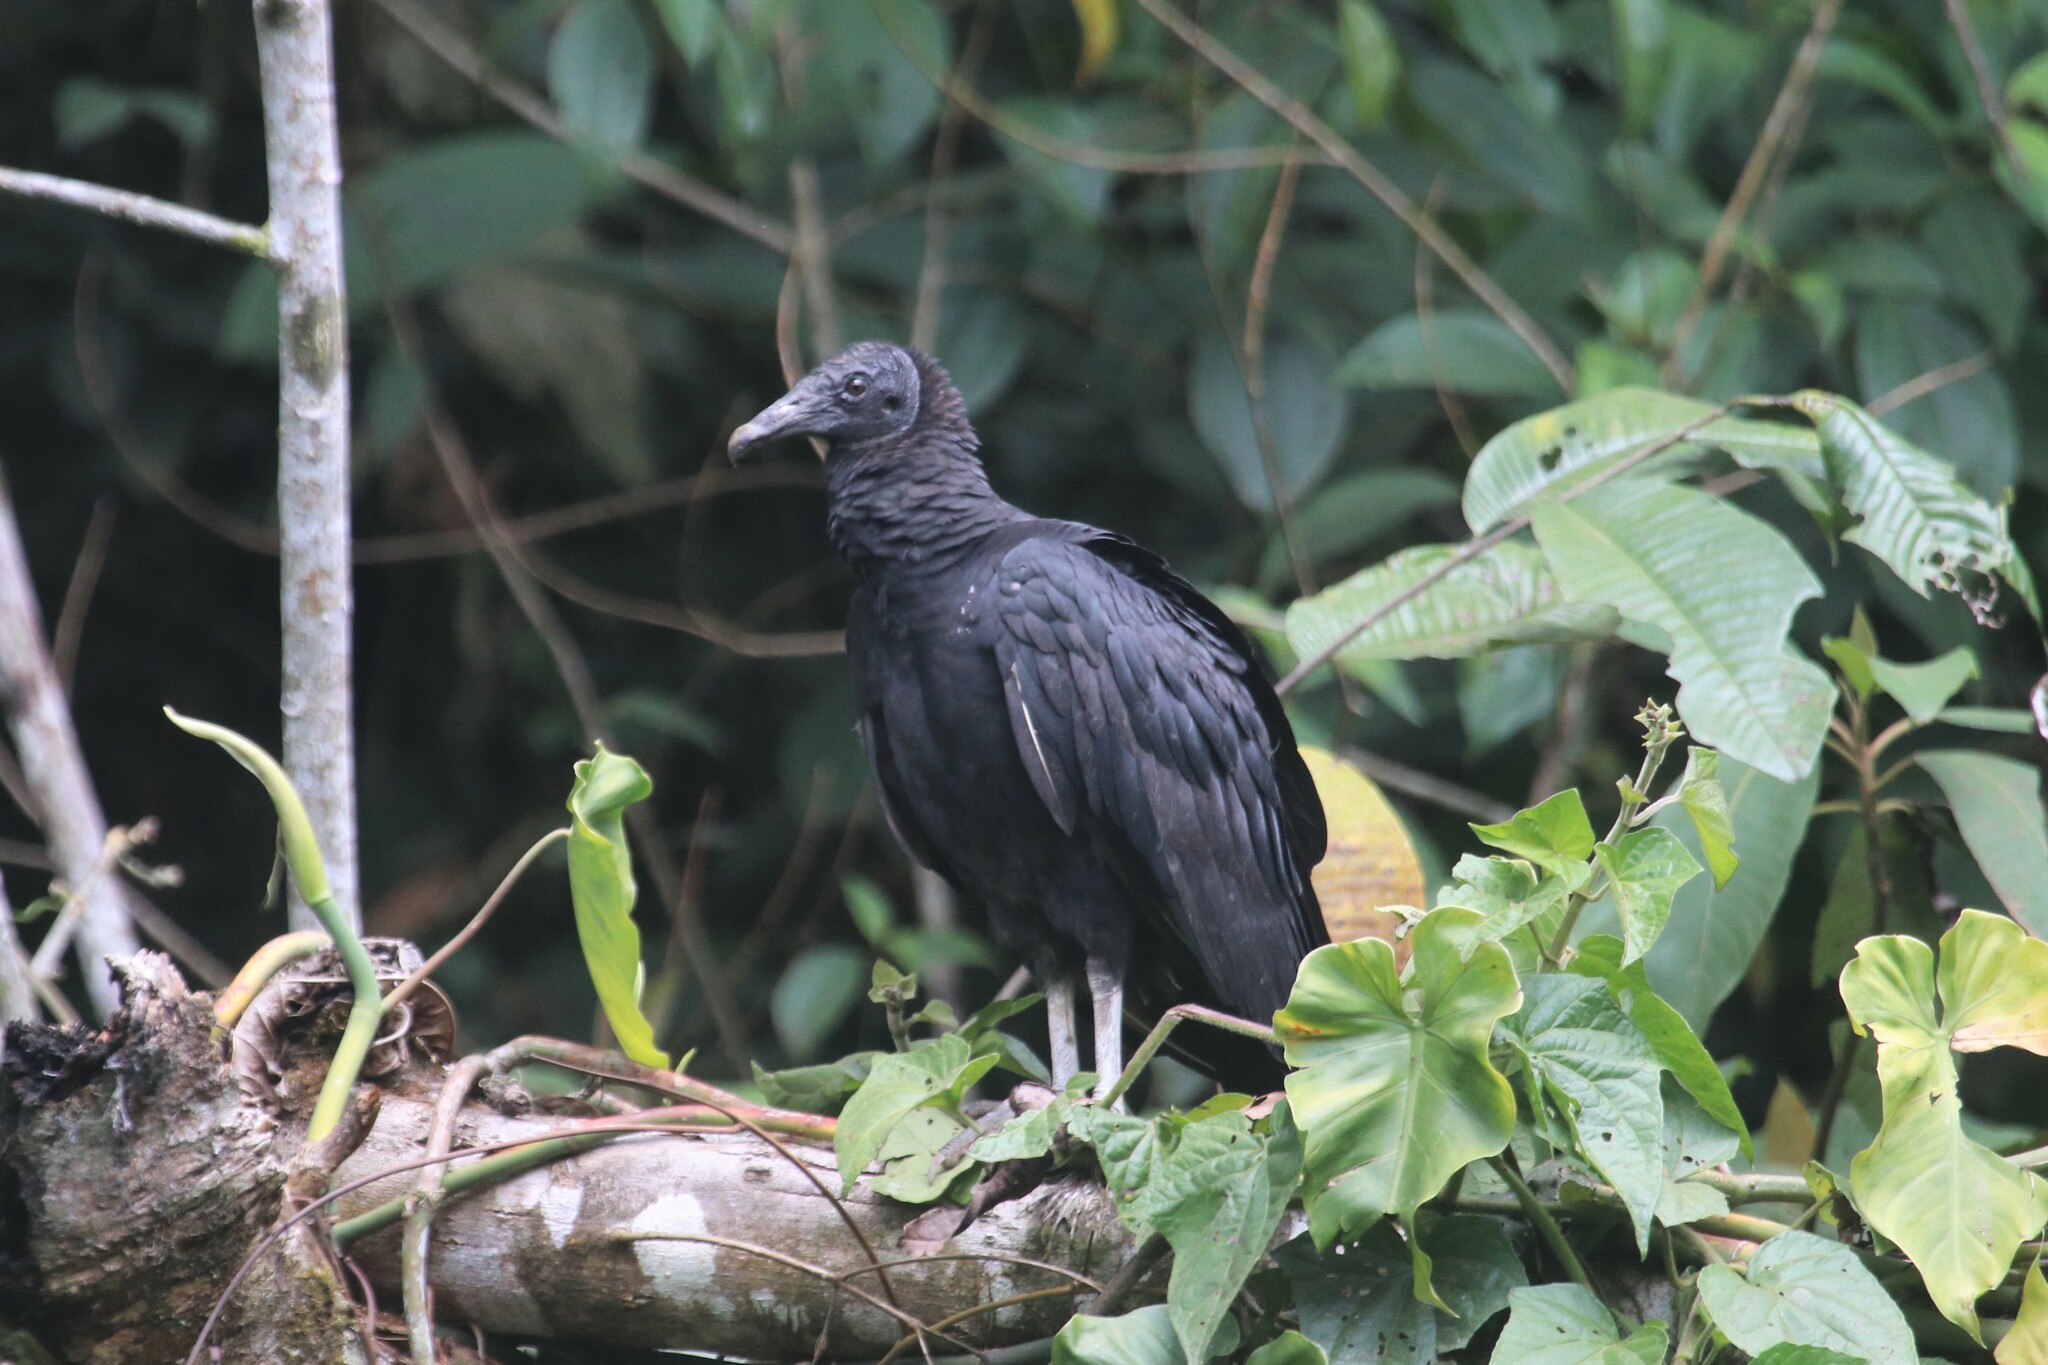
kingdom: Animalia
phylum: Chordata
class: Aves
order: Accipitriformes
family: Cathartidae
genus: Coragyps
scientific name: Coragyps atratus
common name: Black vulture
